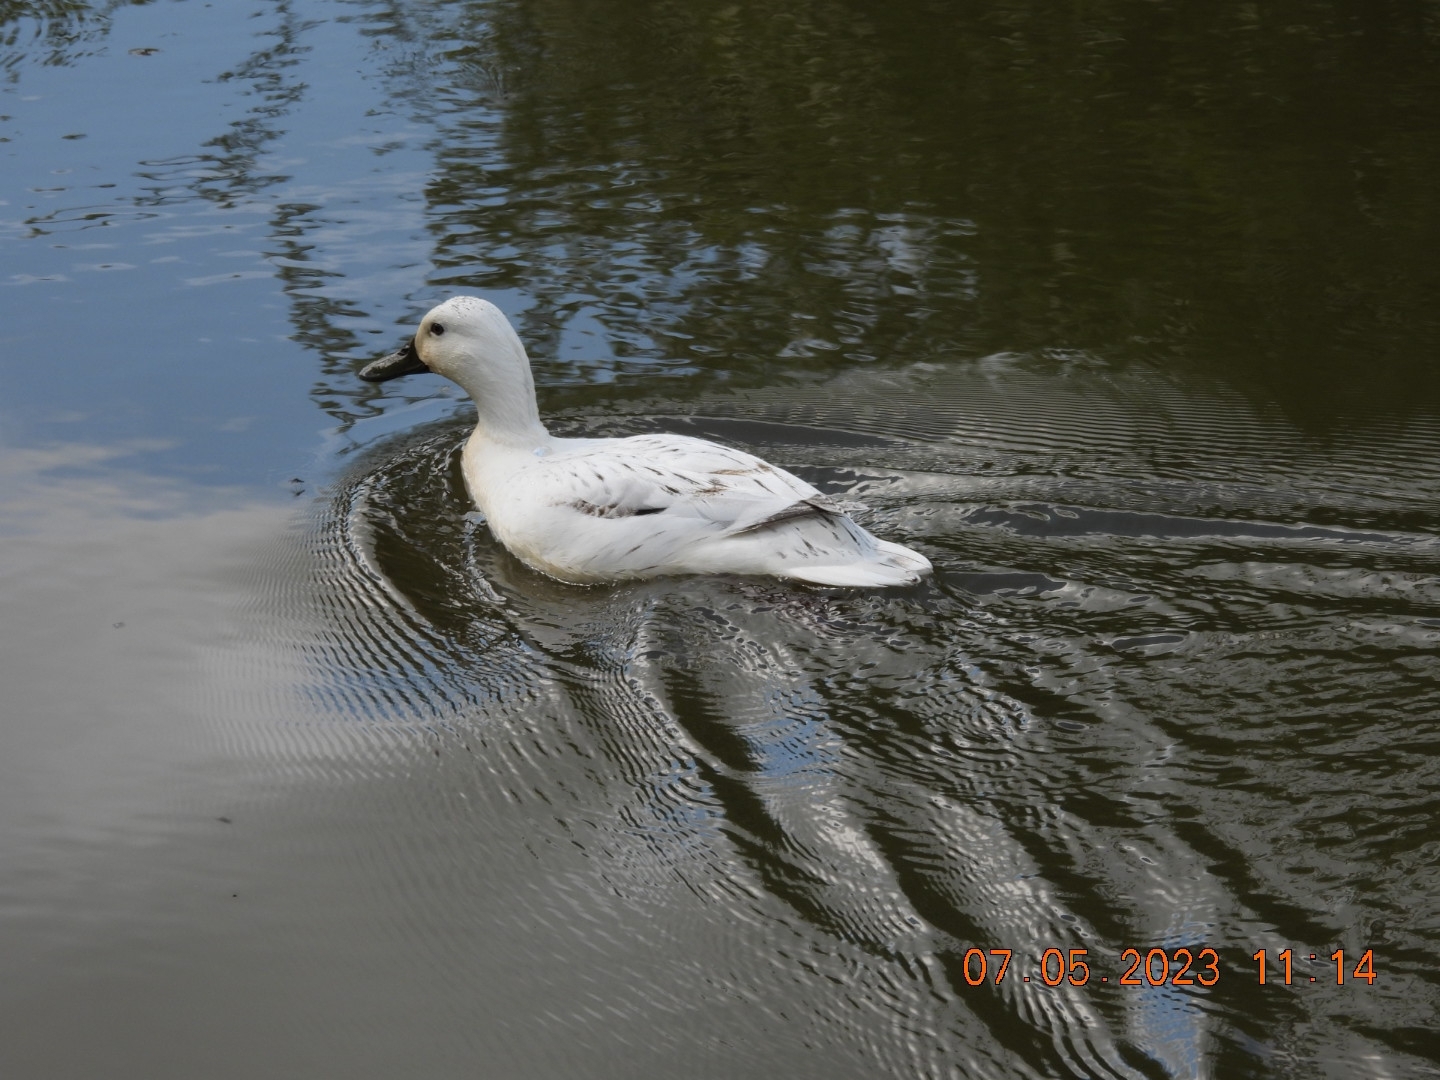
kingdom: Animalia
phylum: Chordata
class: Aves
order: Anseriformes
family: Anatidae
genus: Anas
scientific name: Anas platyrhynchos
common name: Mallard
